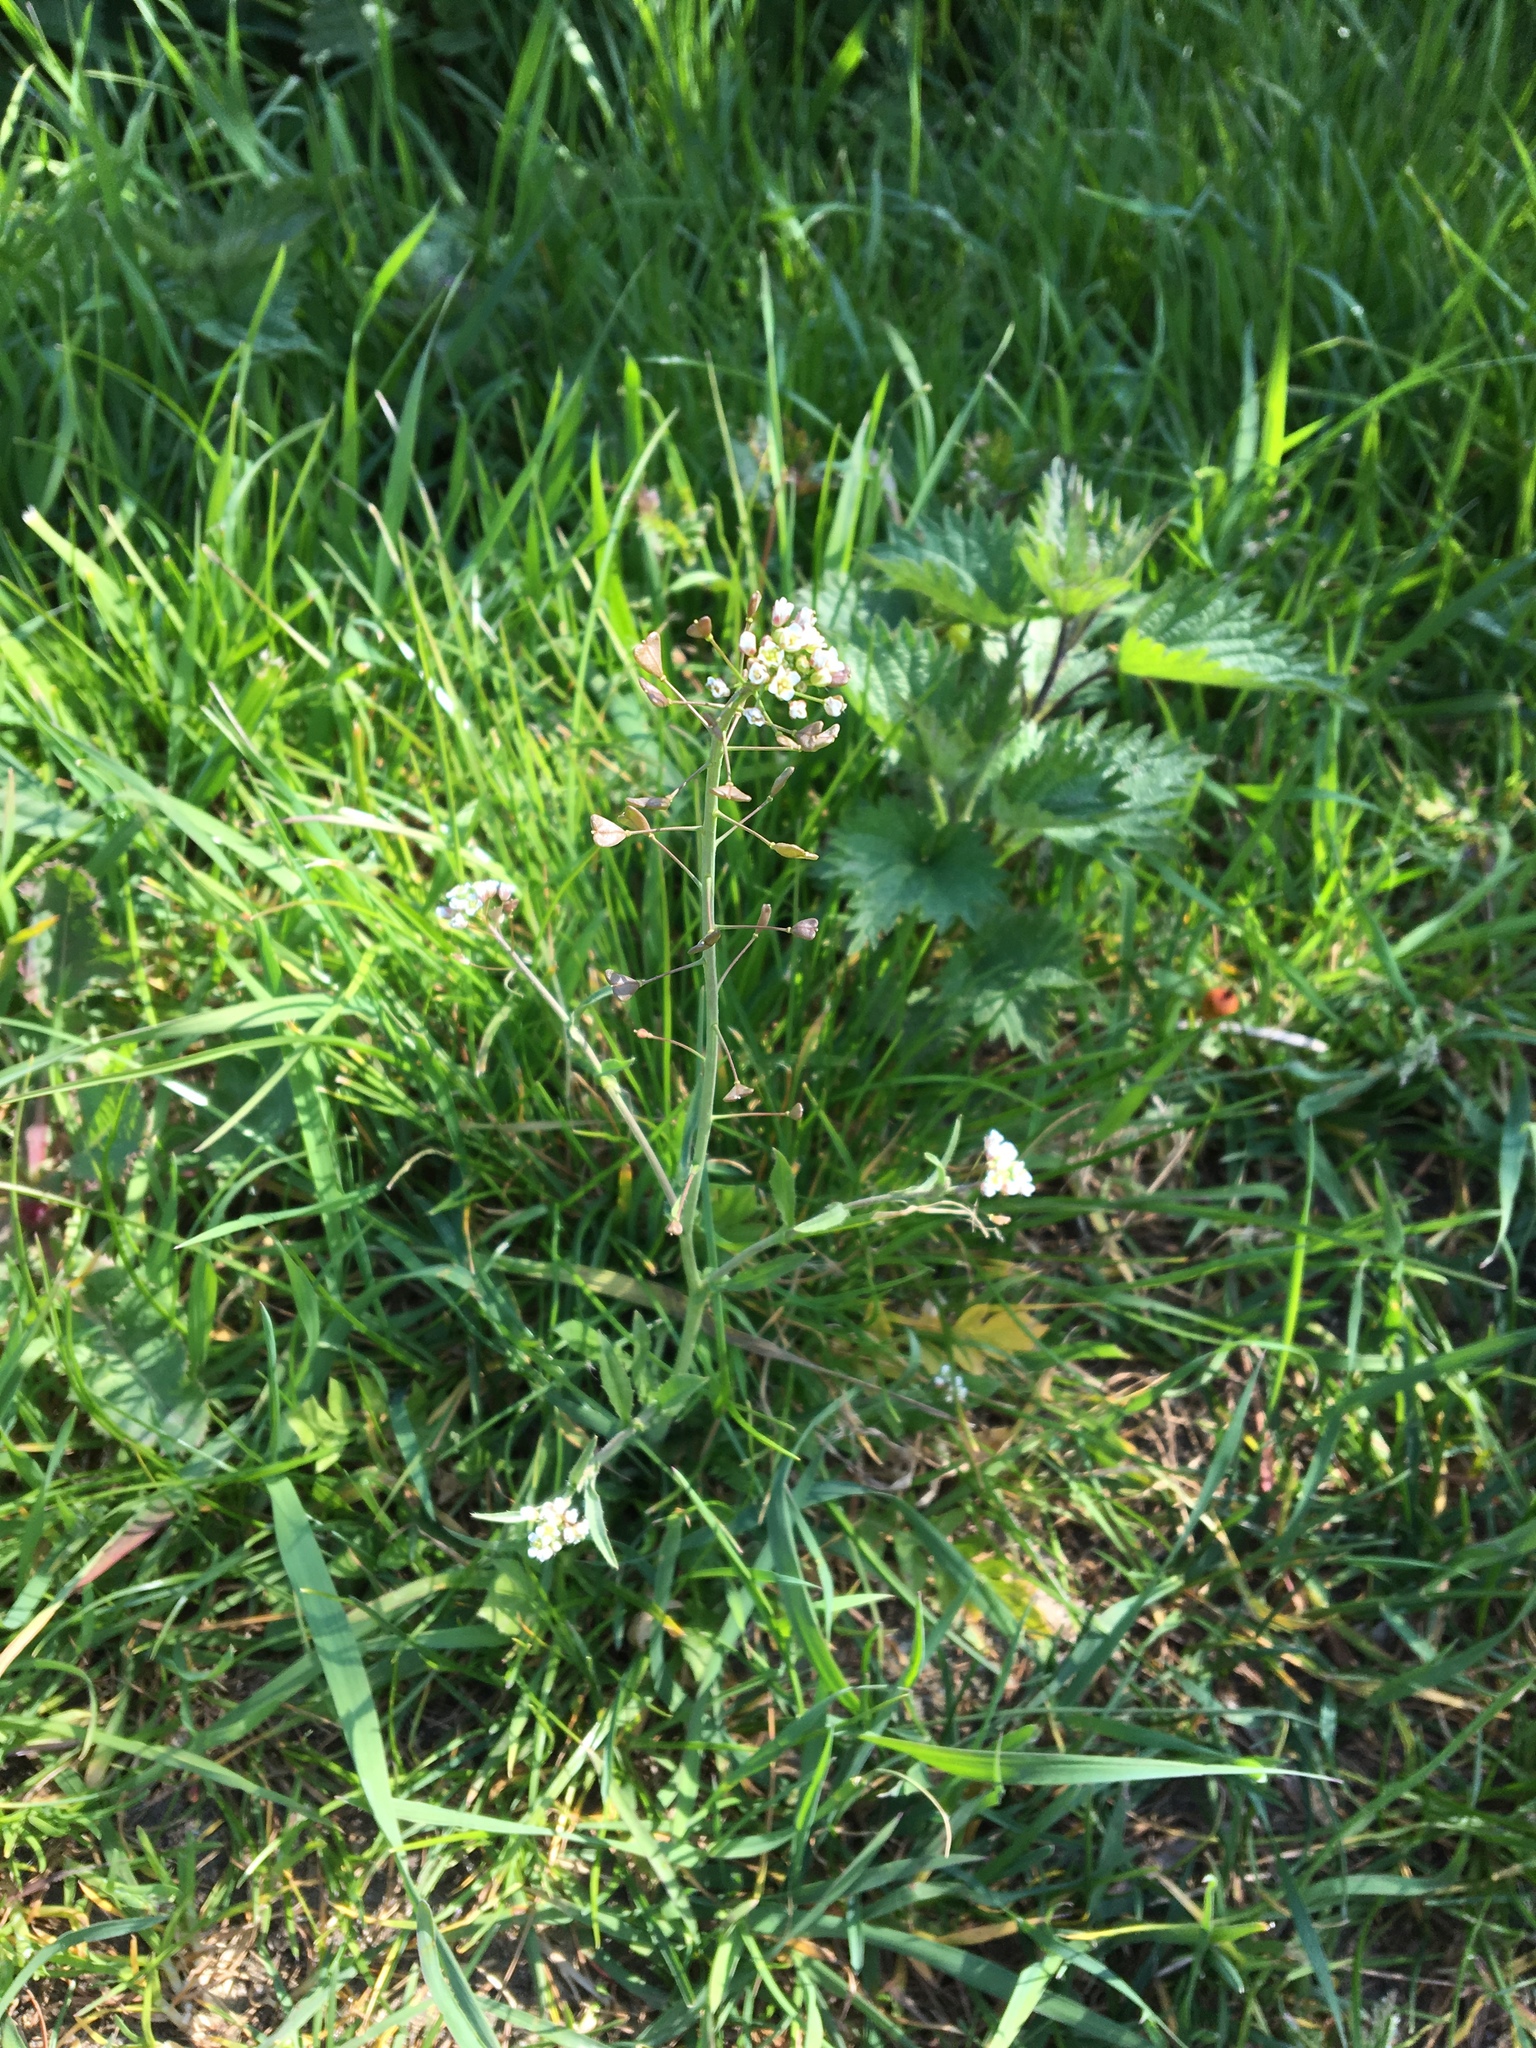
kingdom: Plantae
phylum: Tracheophyta
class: Magnoliopsida
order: Brassicales
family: Brassicaceae
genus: Capsella
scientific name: Capsella bursa-pastoris
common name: Shepherd's purse
